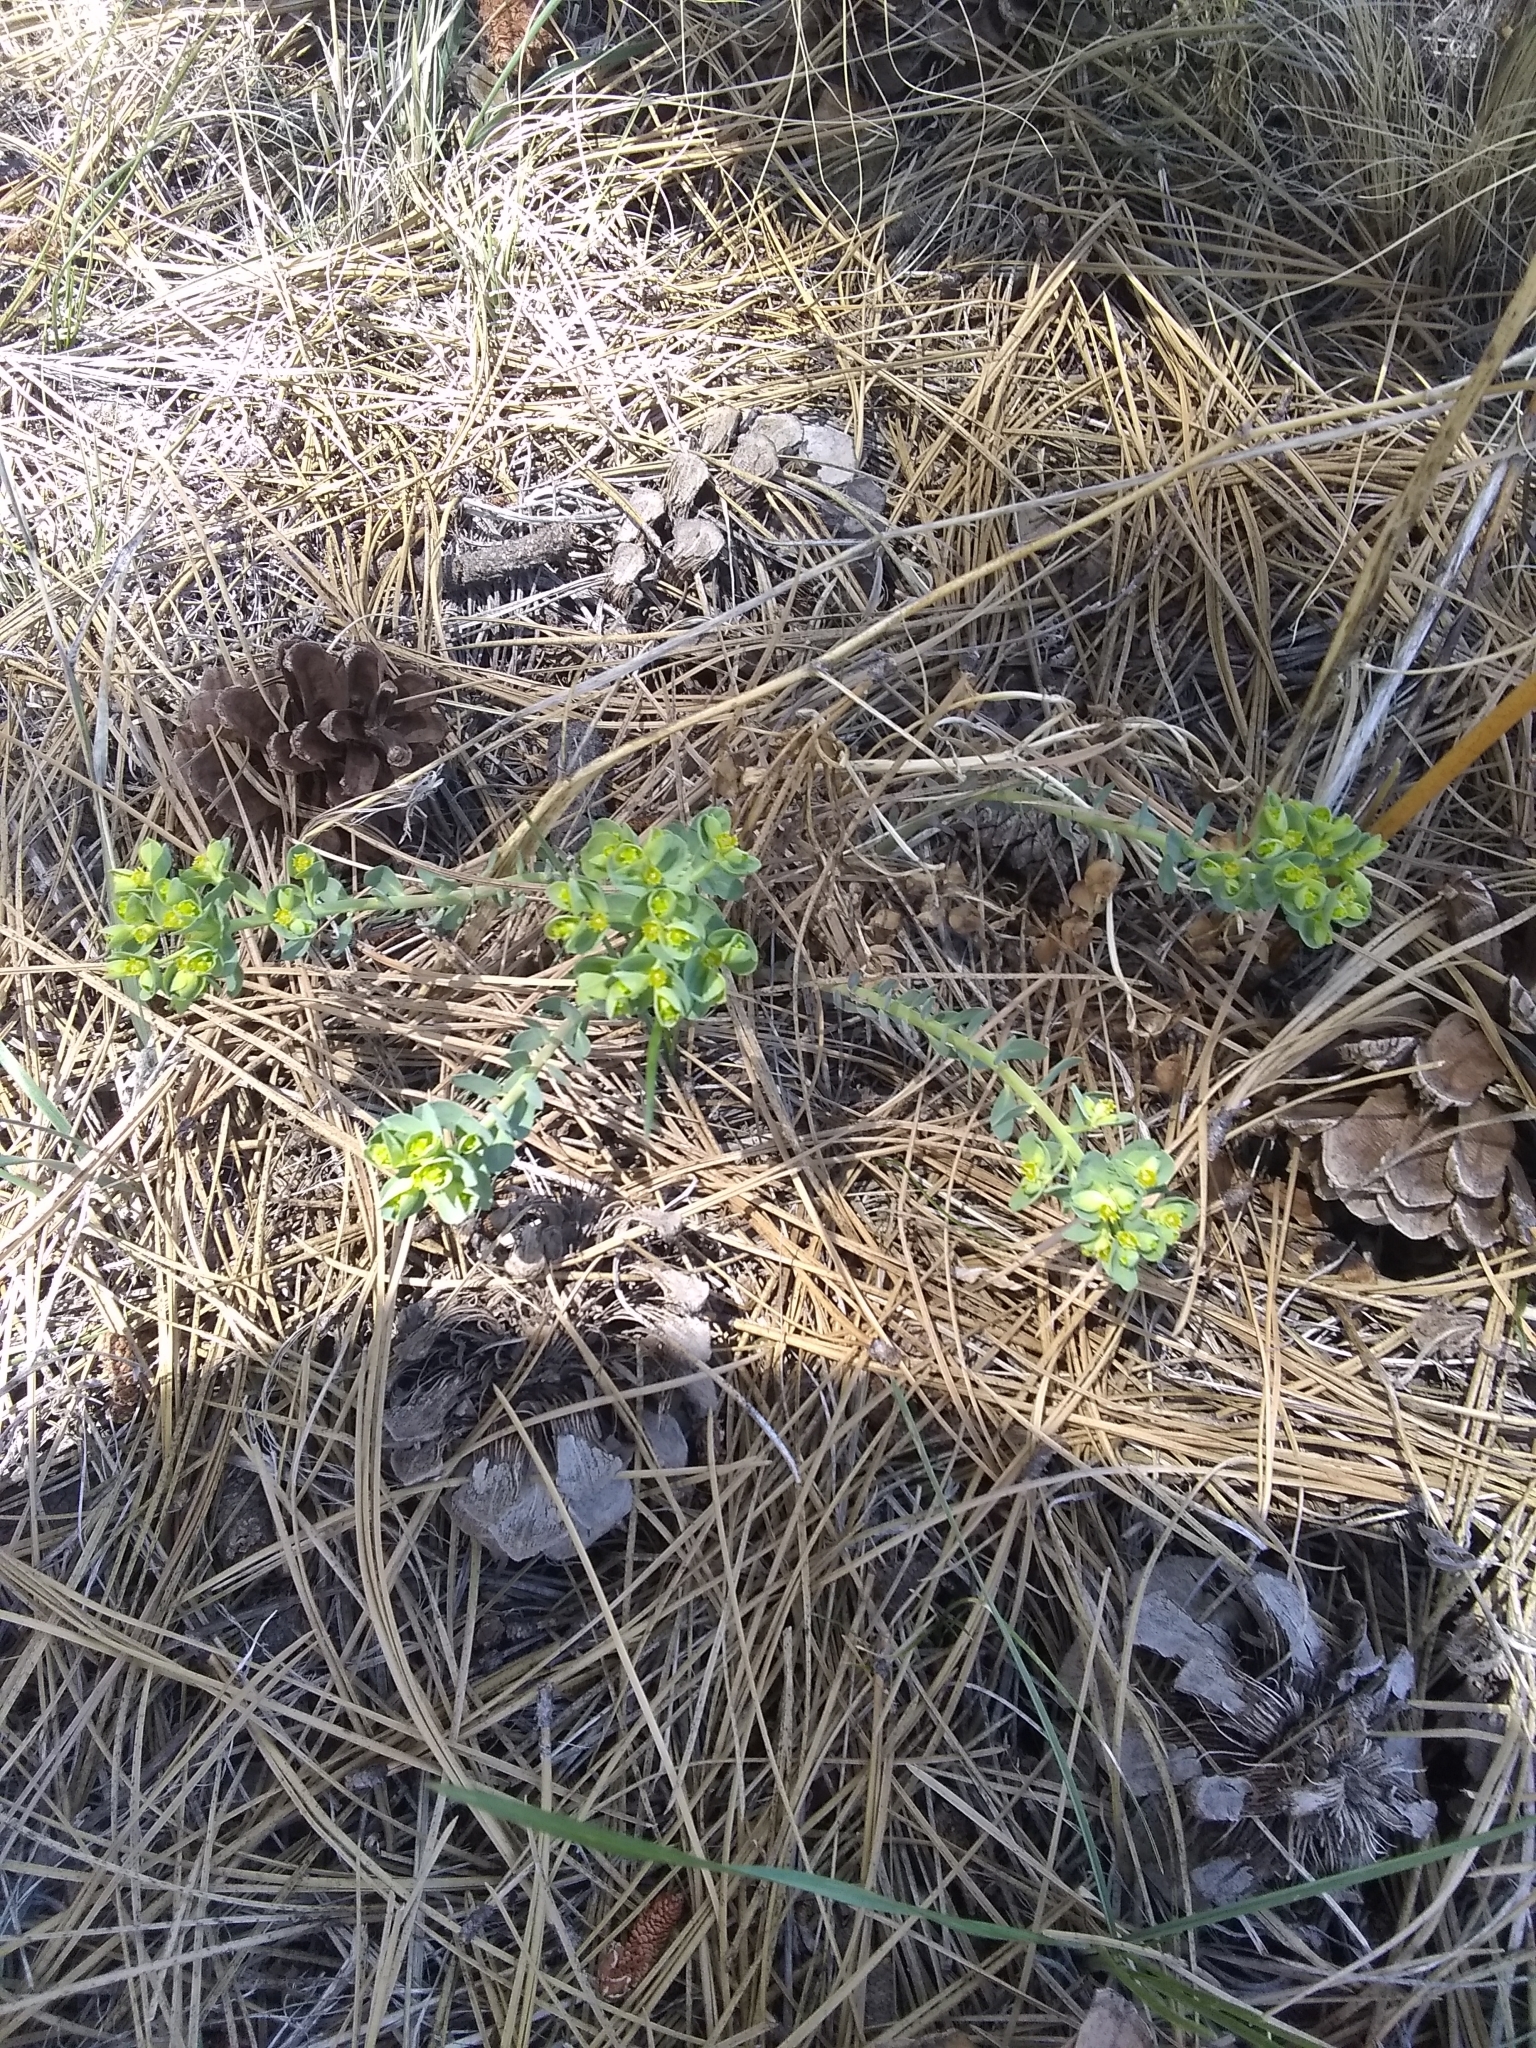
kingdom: Plantae
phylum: Tracheophyta
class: Magnoliopsida
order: Malpighiales
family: Euphorbiaceae
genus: Euphorbia
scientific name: Euphorbia lurida
